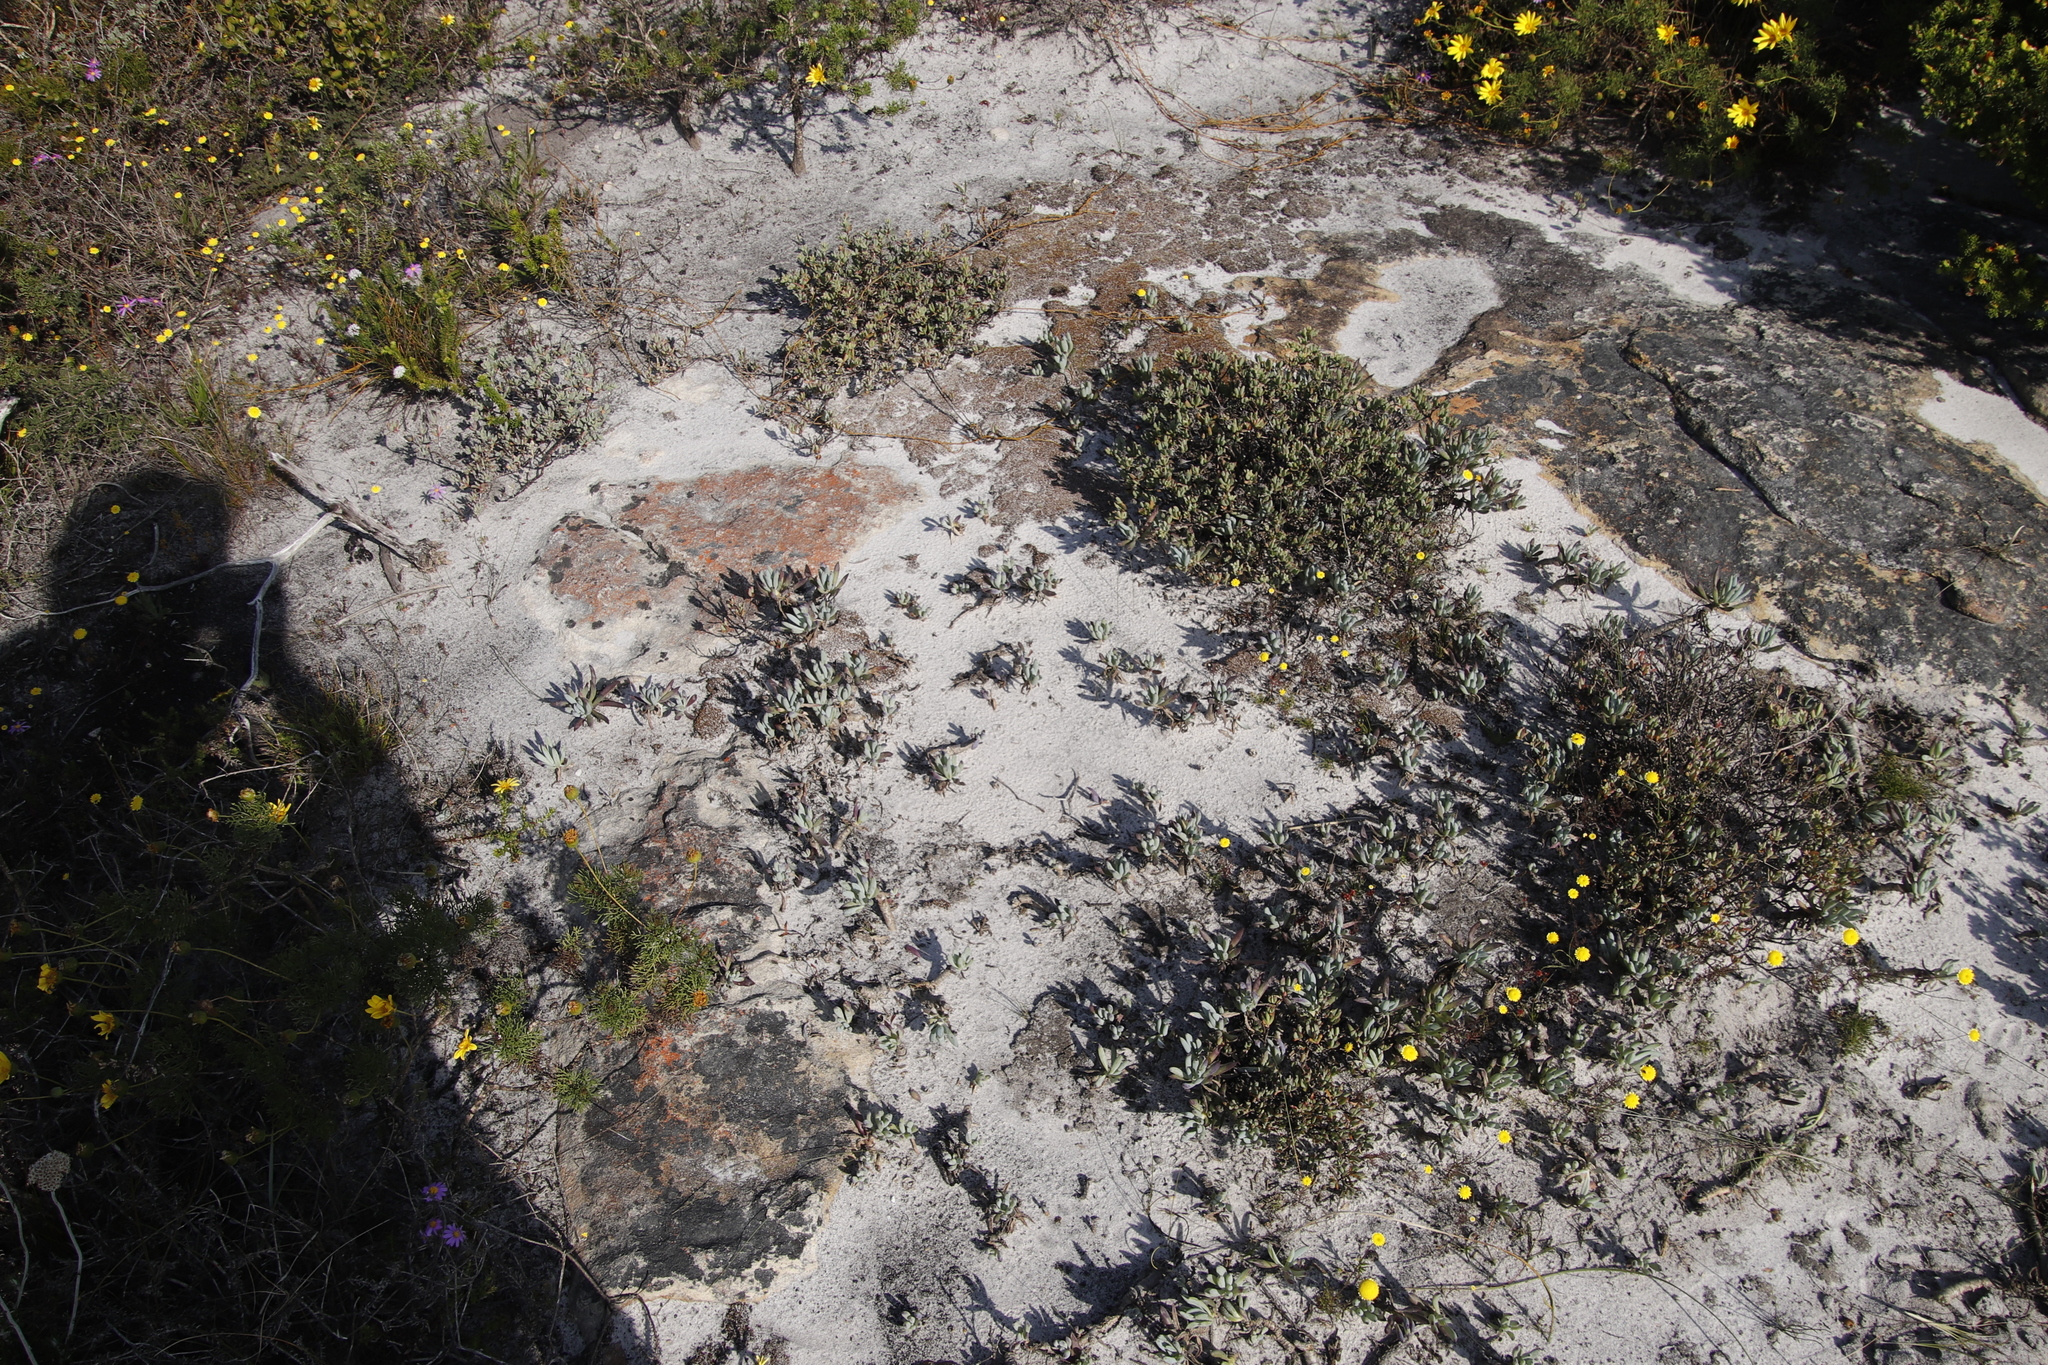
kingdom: Plantae
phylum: Tracheophyta
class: Magnoliopsida
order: Asterales
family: Asteraceae
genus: Curio
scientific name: Curio crassulifolius
